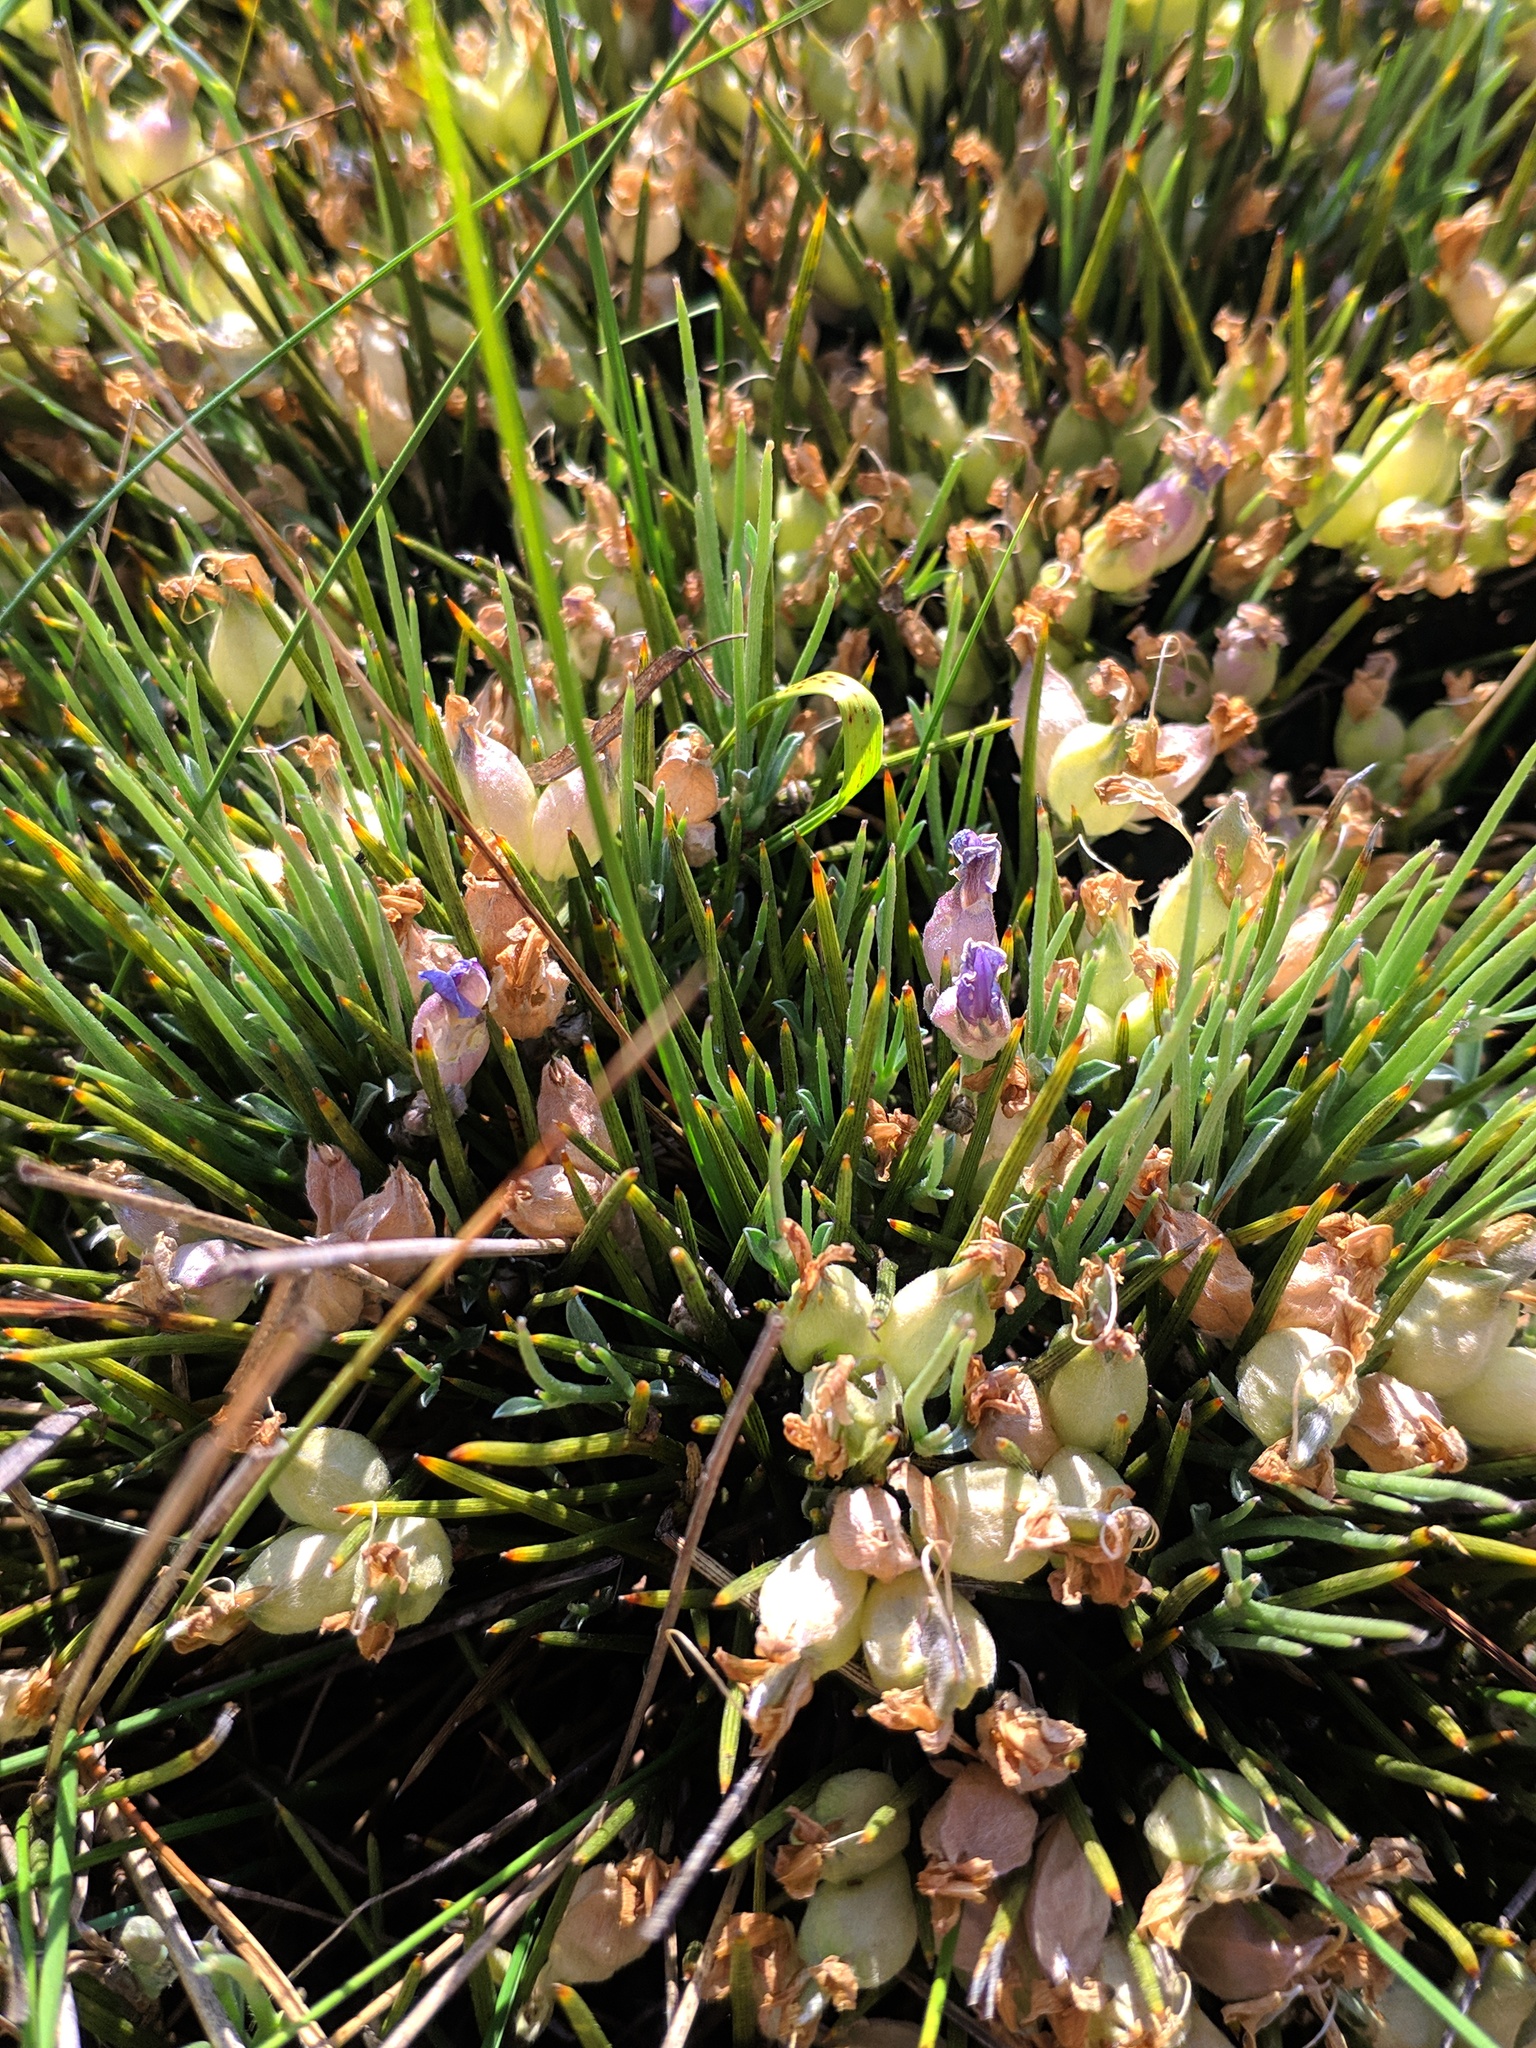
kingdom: Plantae
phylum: Tracheophyta
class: Magnoliopsida
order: Fabales
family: Fabaceae
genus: Erinacea
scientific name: Erinacea anthyllis
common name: Hedgehog-broom
